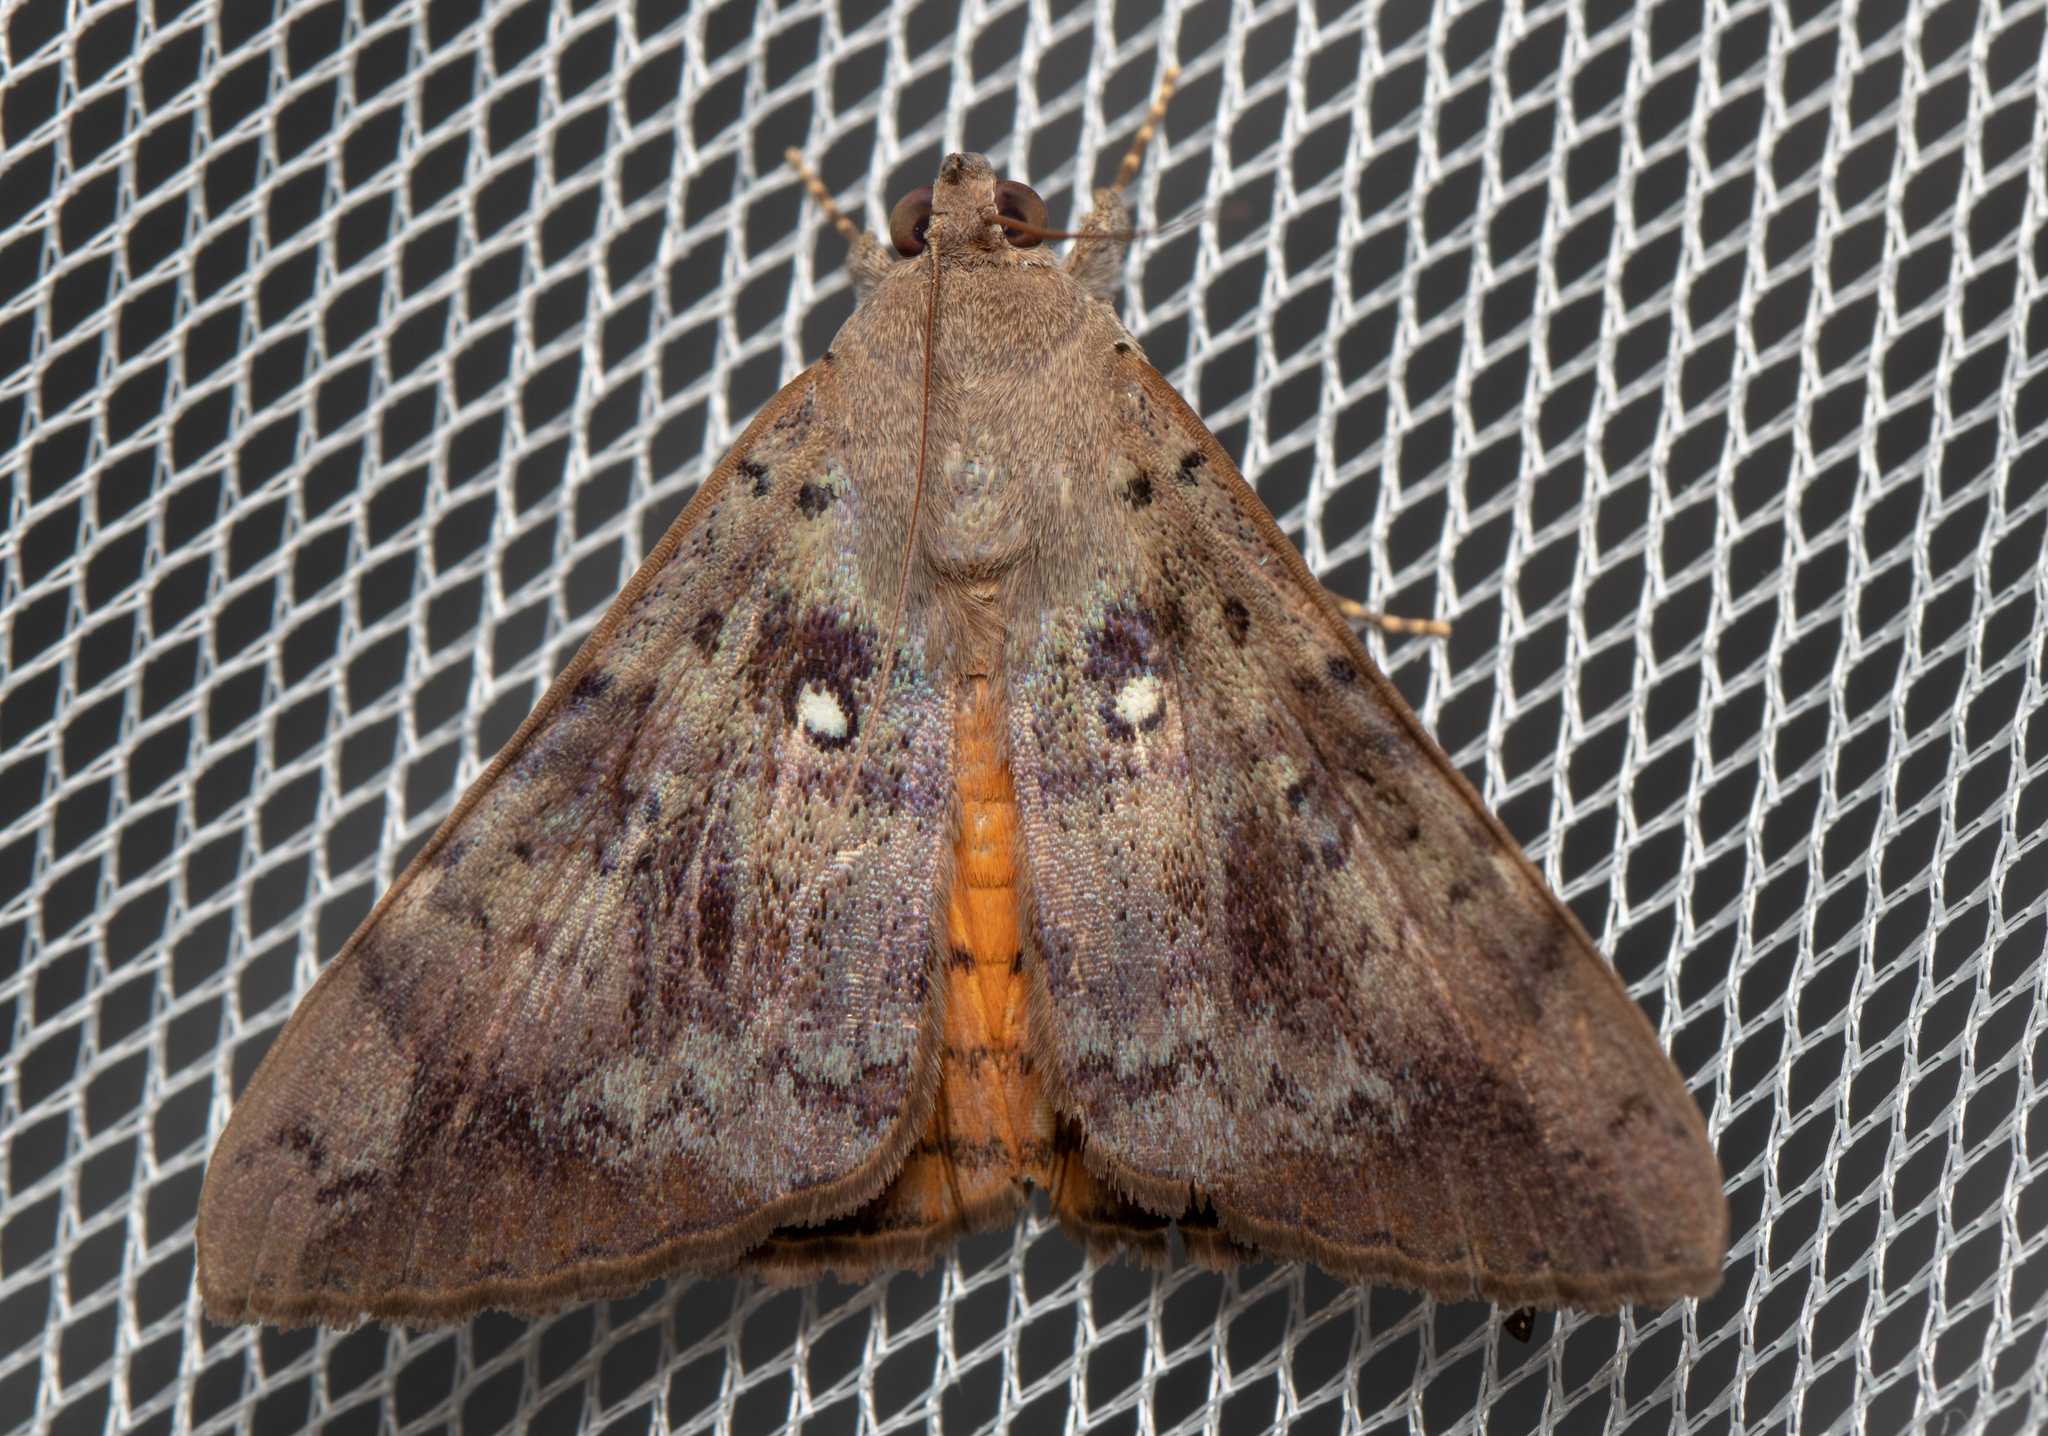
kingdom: Animalia
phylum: Arthropoda
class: Insecta
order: Lepidoptera
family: Erebidae
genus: Oxyodes
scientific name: Oxyodes tricolor
